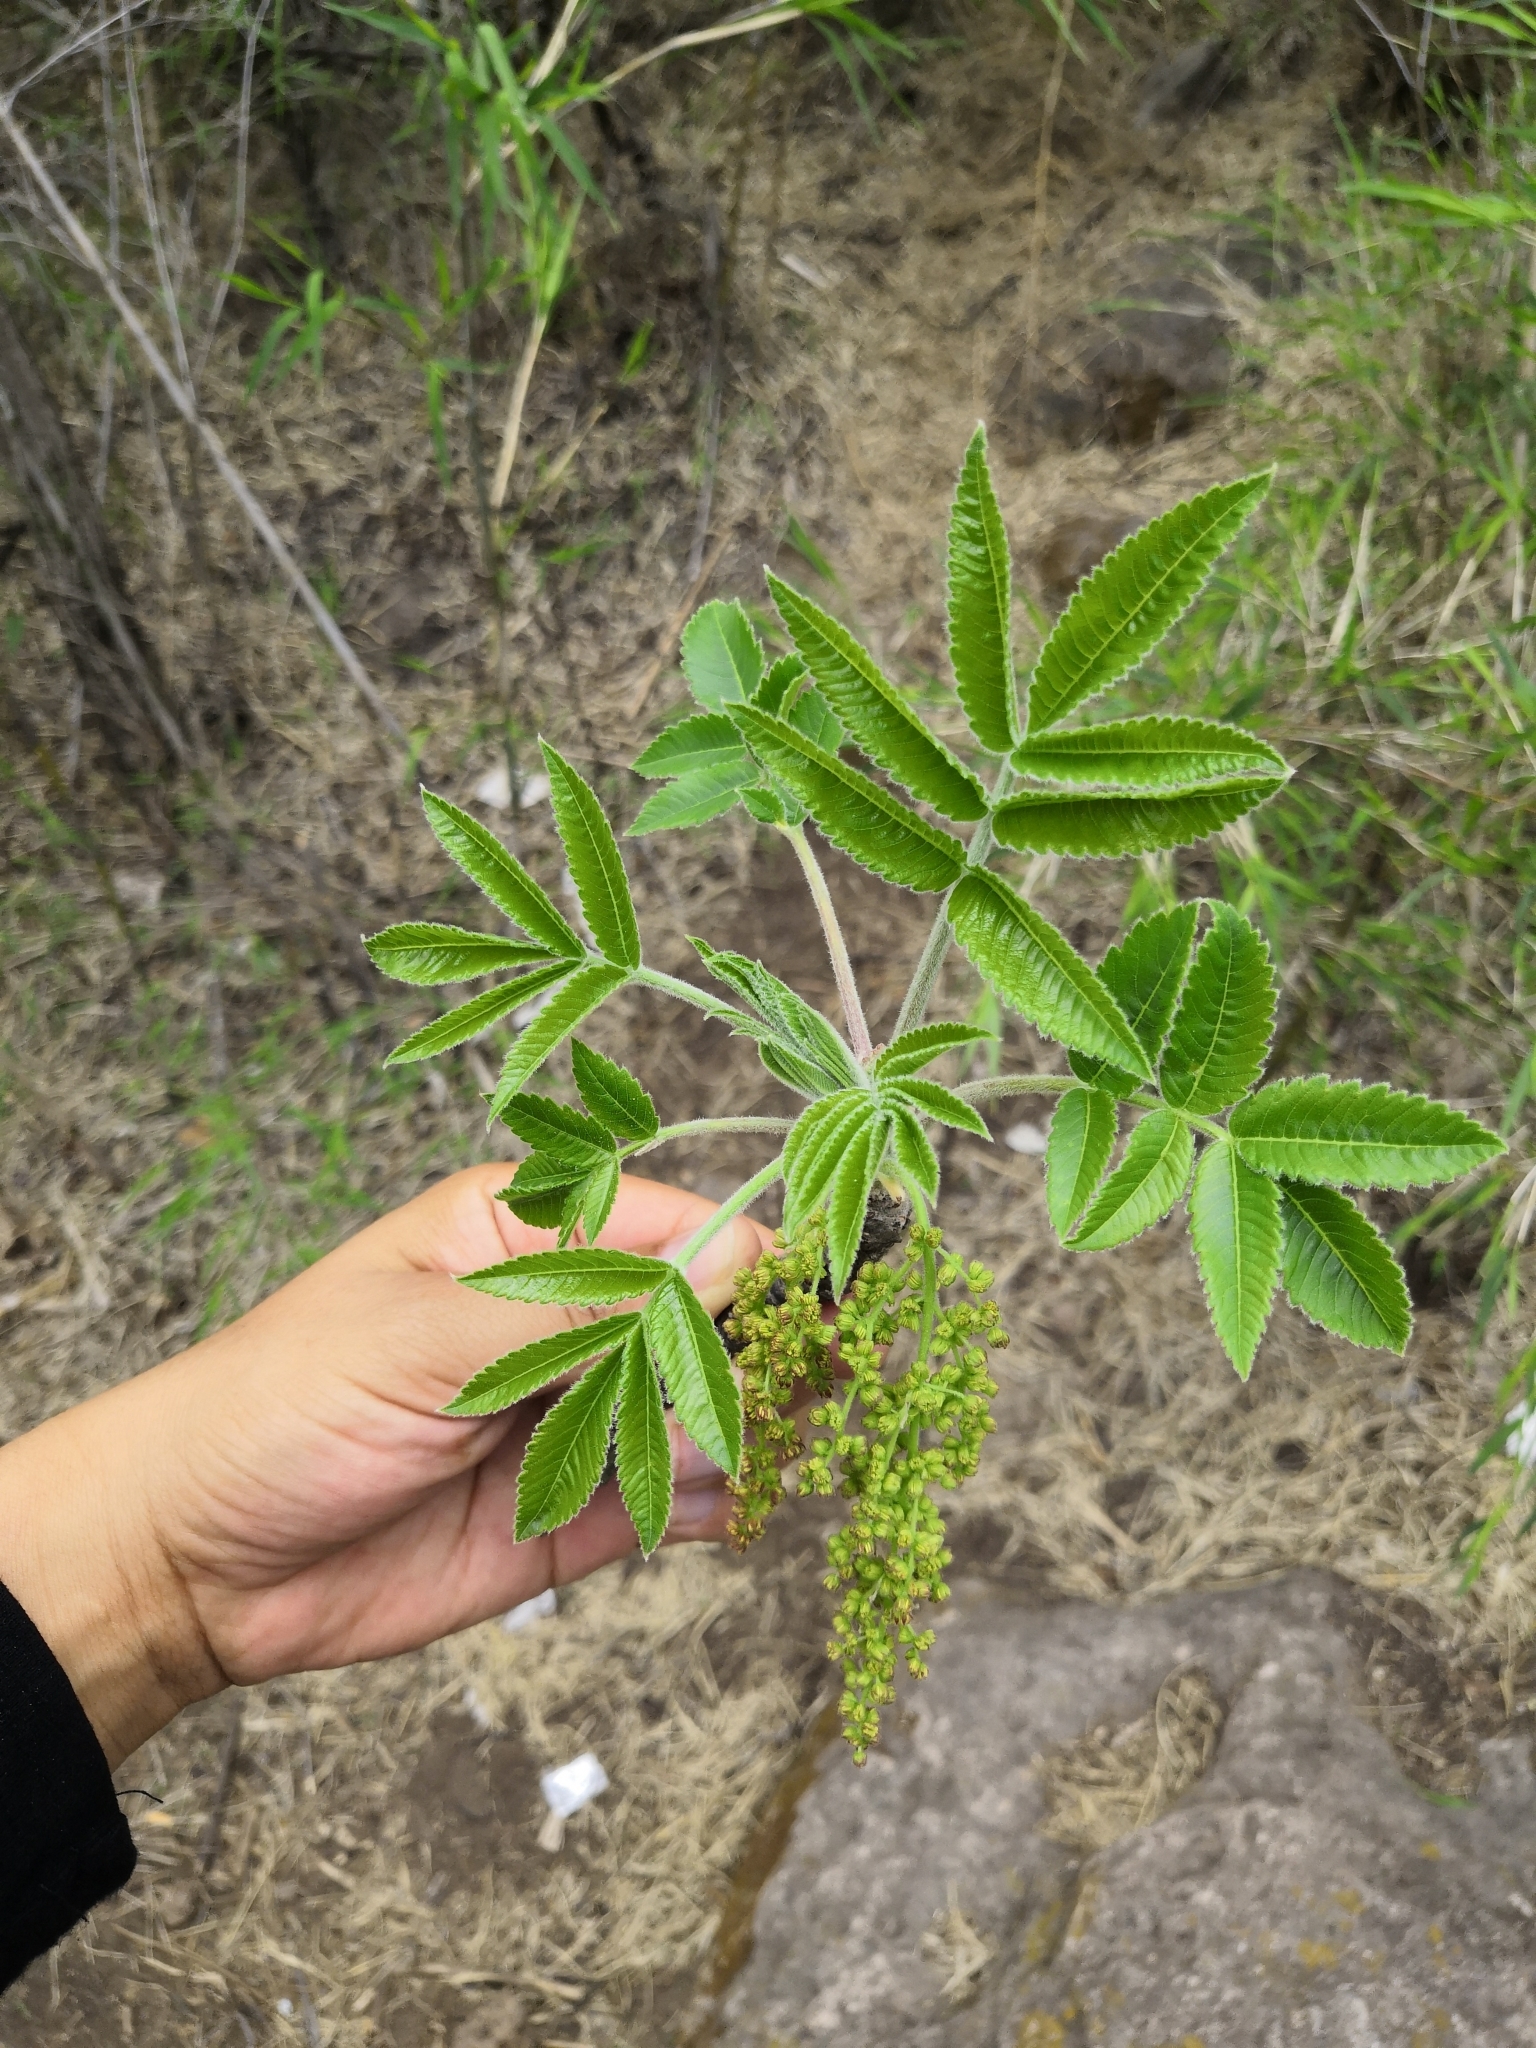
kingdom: Plantae
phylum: Tracheophyta
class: Magnoliopsida
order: Sapindales
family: Anacardiaceae
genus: Amphipterygium
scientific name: Amphipterygium molle
